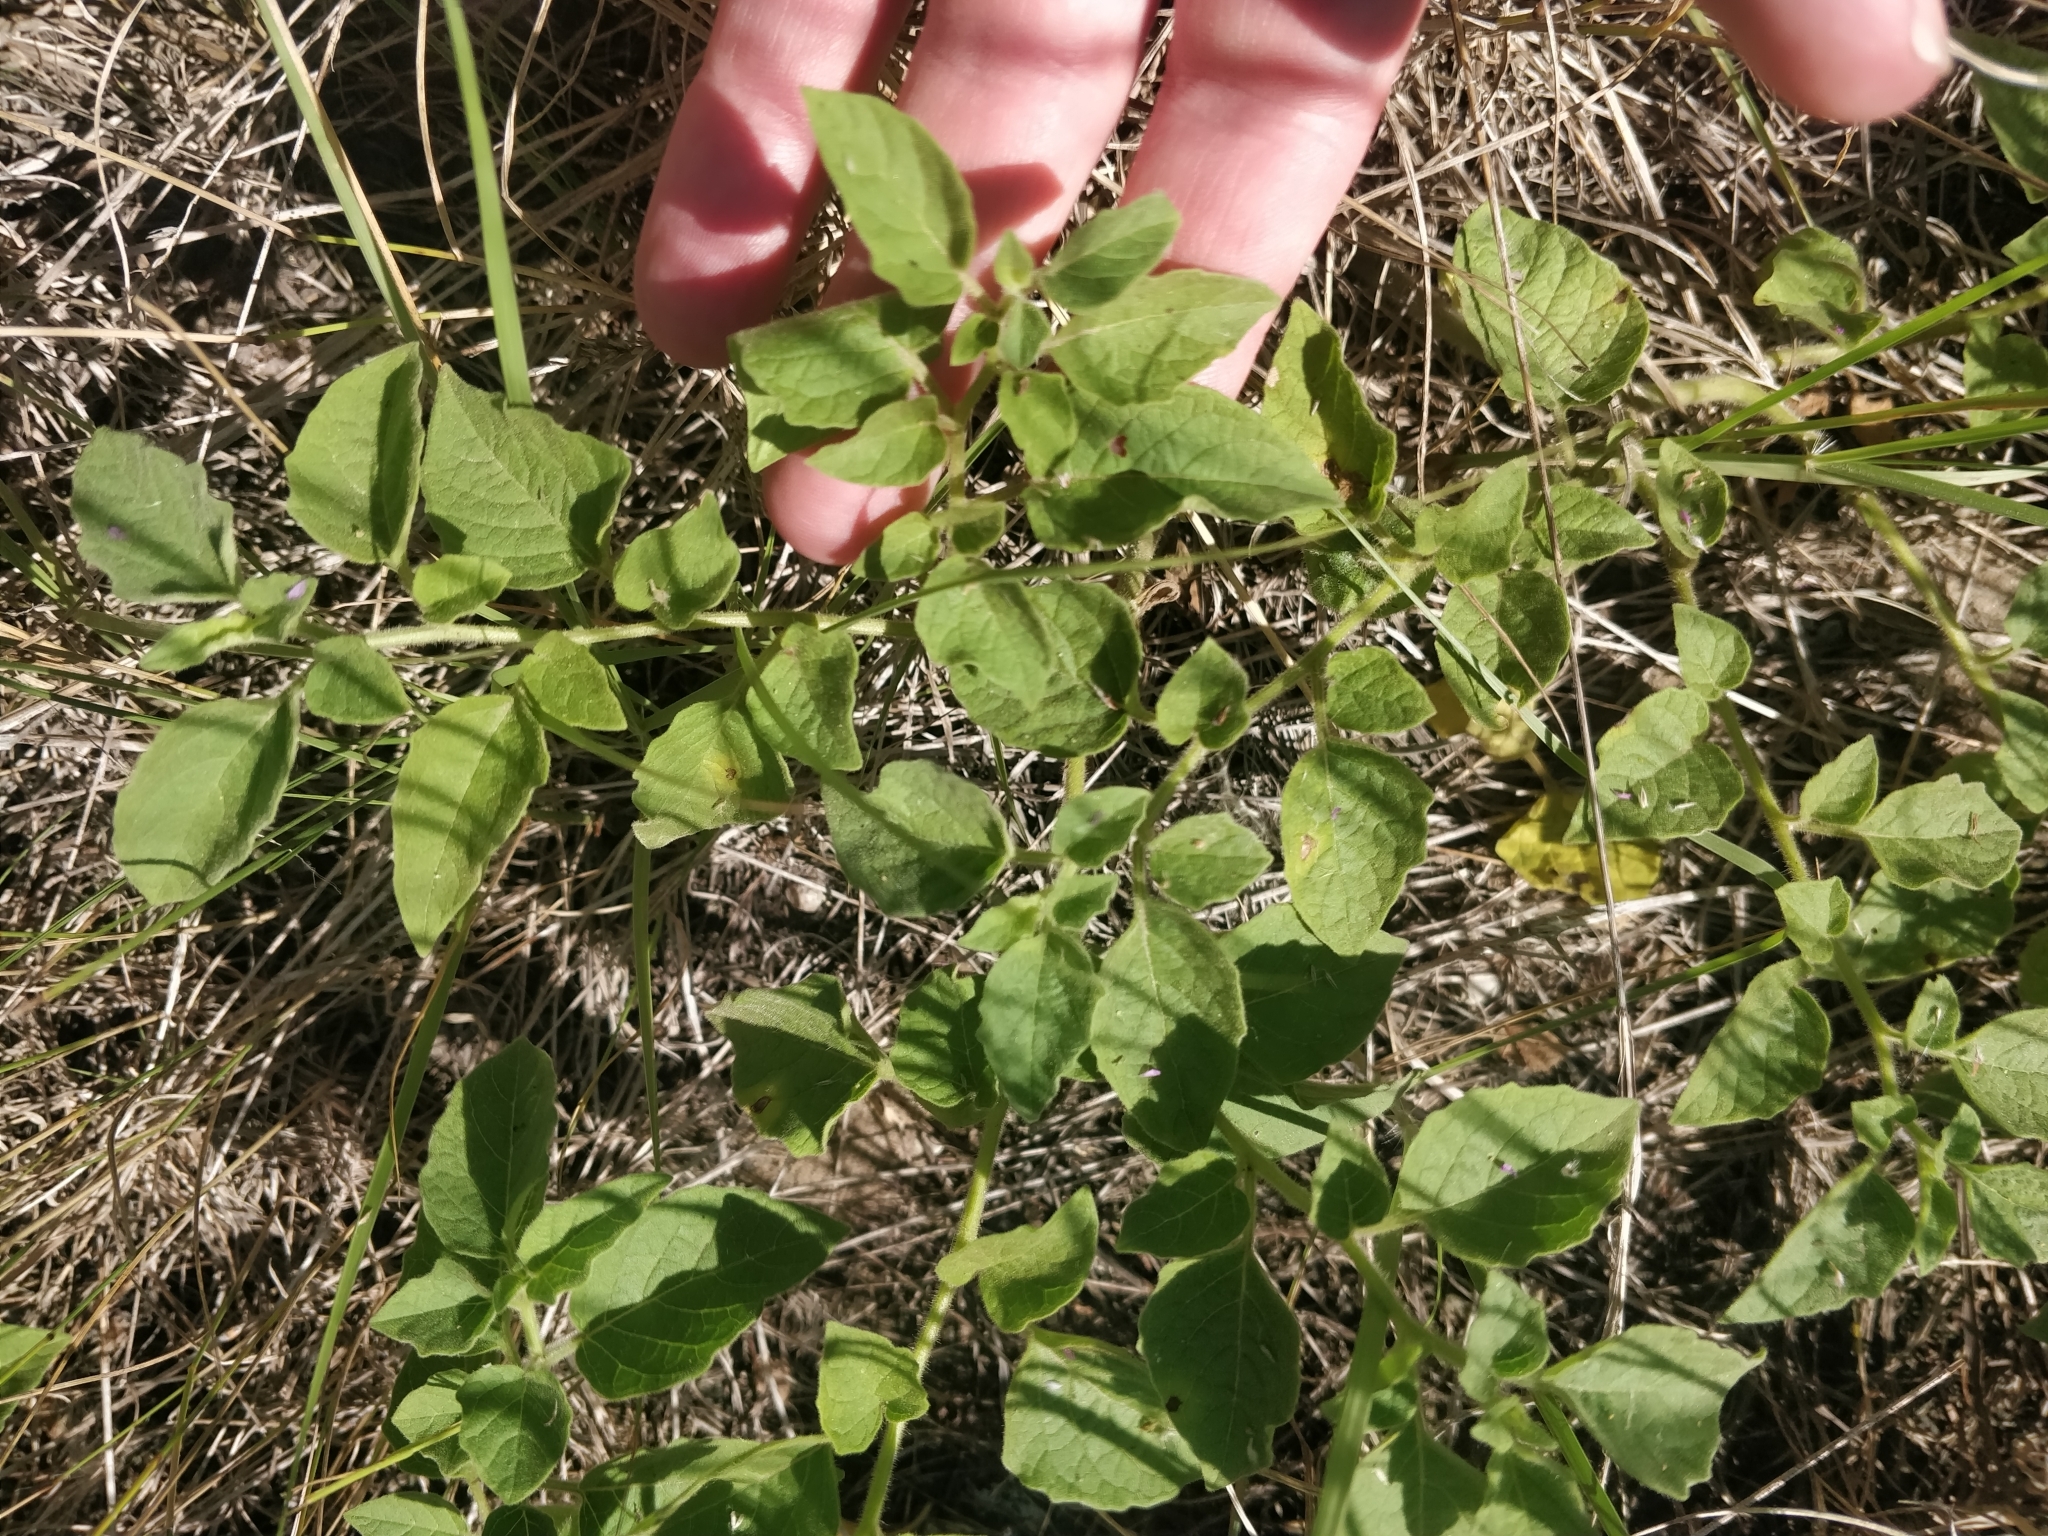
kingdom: Plantae
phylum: Tracheophyta
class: Magnoliopsida
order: Solanales
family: Solanaceae
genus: Physalis
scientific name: Physalis heterophylla
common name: Clammy ground-cherry
